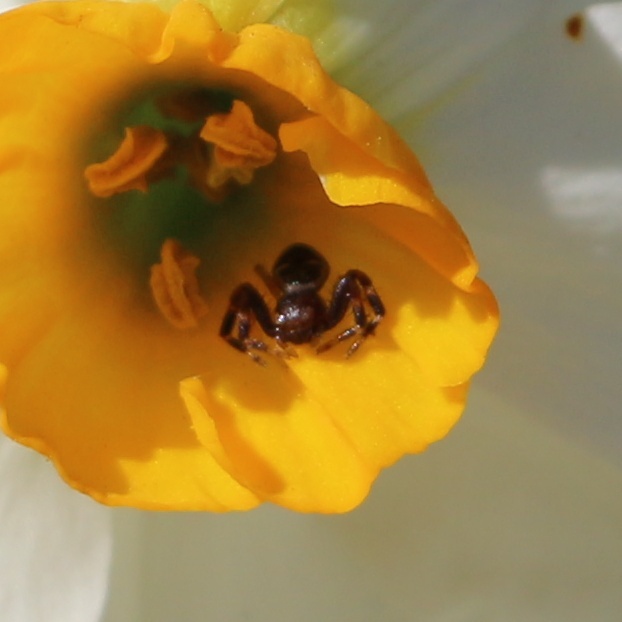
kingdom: Animalia
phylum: Arthropoda
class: Arachnida
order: Araneae
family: Thomisidae
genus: Synema
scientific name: Synema globosum
